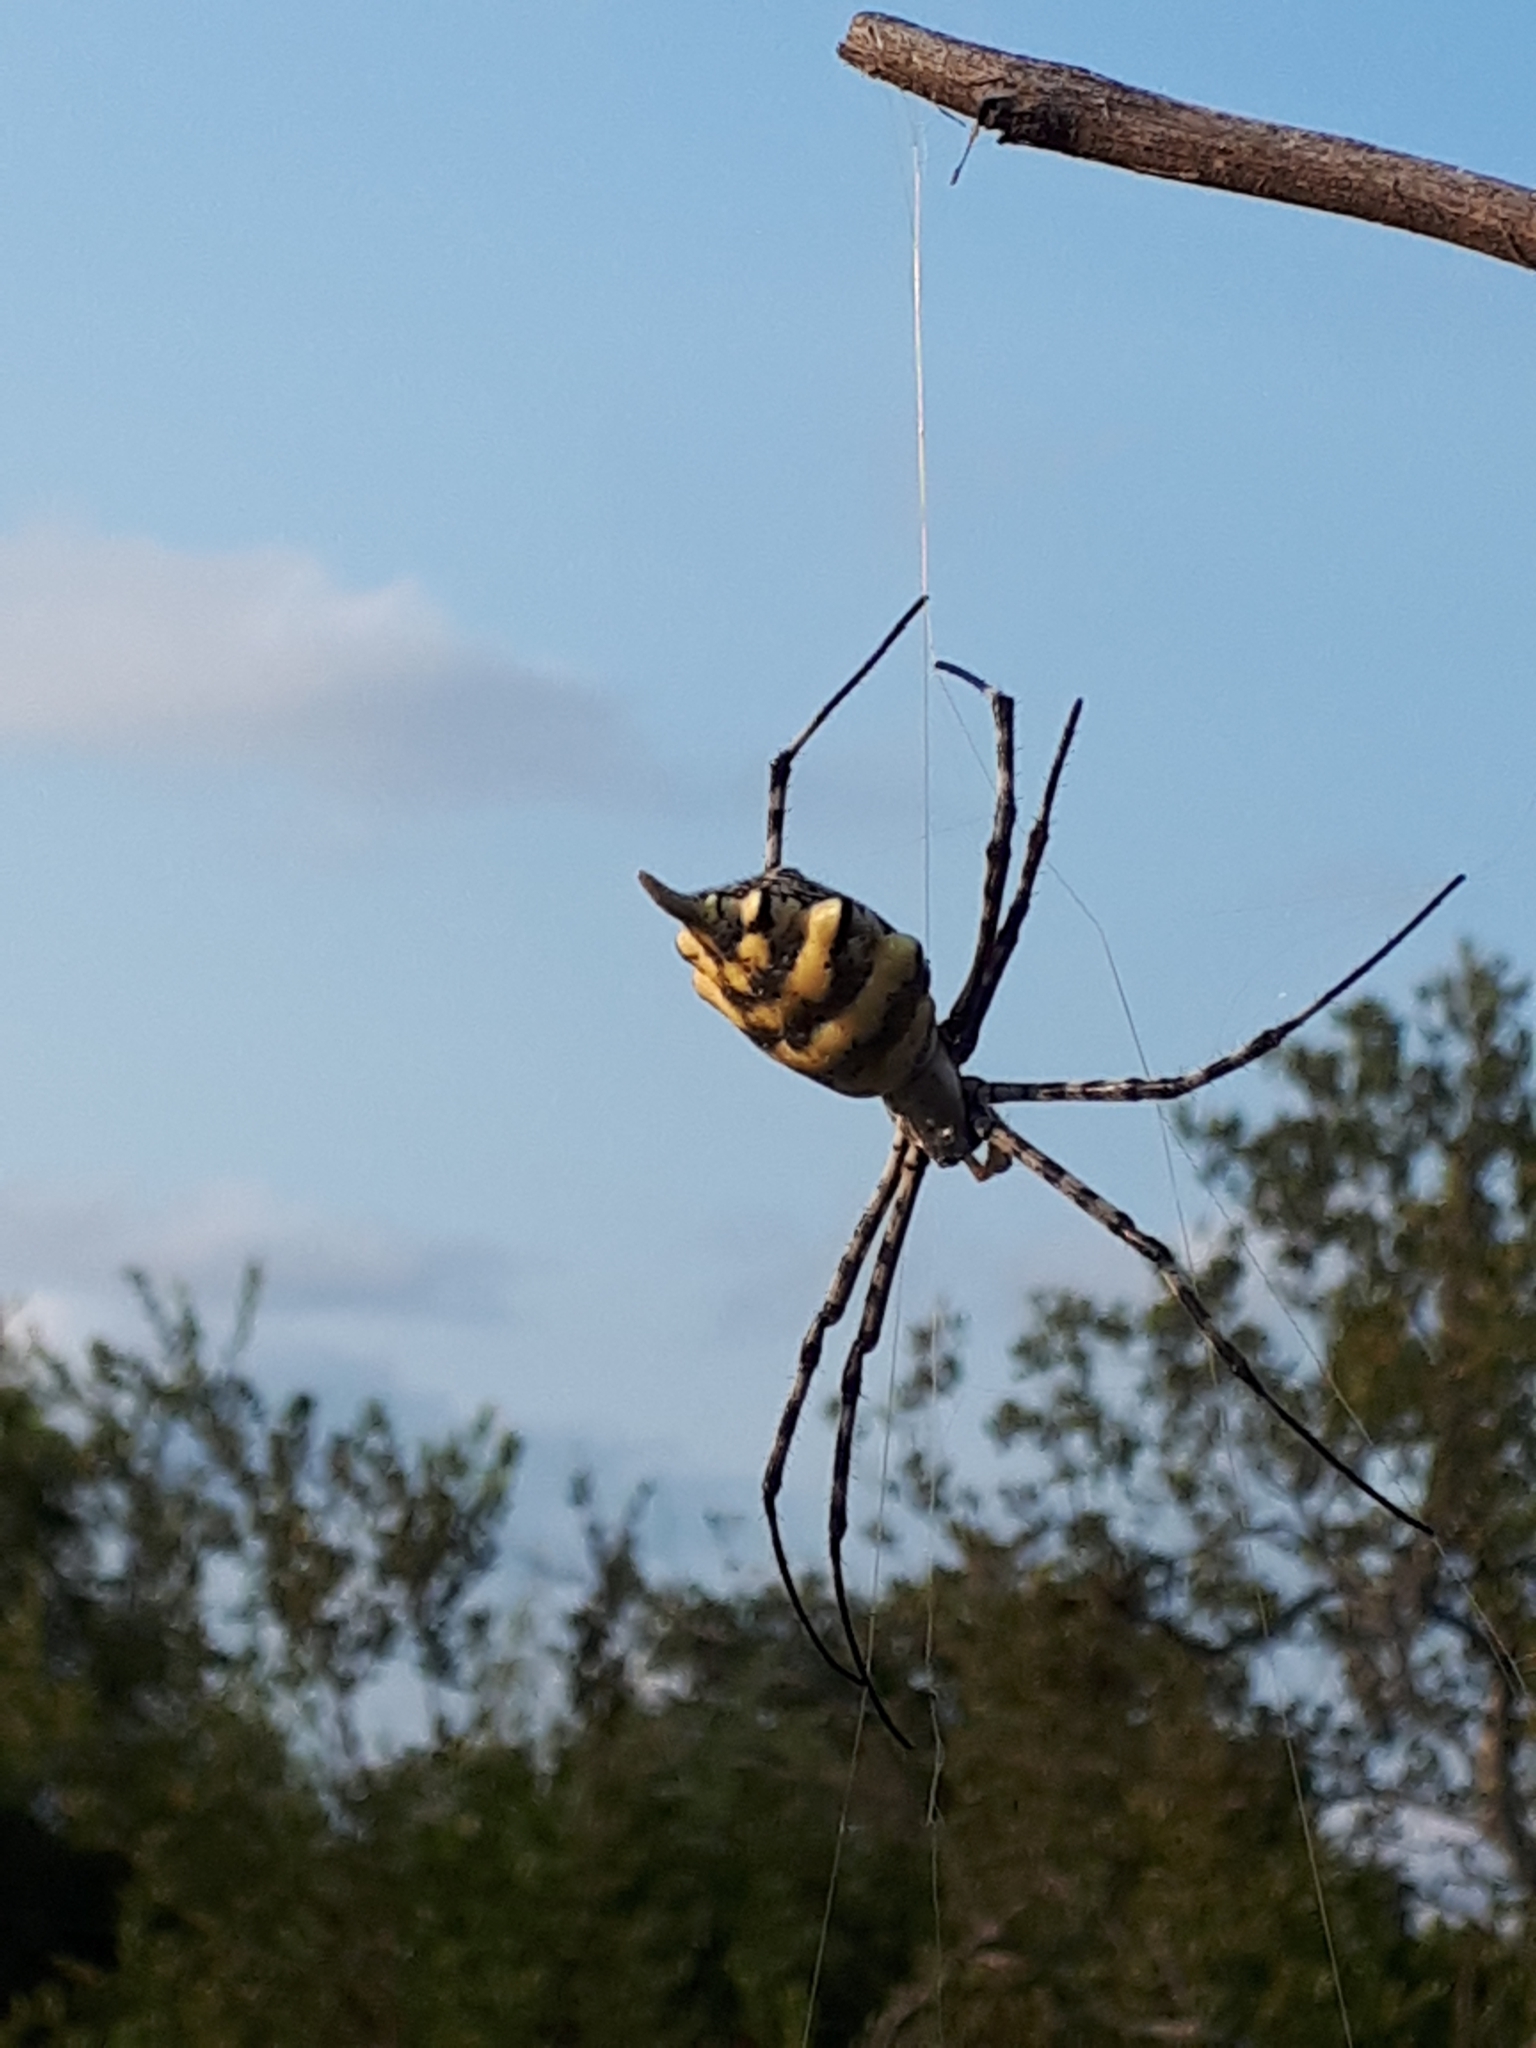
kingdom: Animalia
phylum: Arthropoda
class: Arachnida
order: Araneae
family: Araneidae
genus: Argiope
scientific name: Argiope australis
